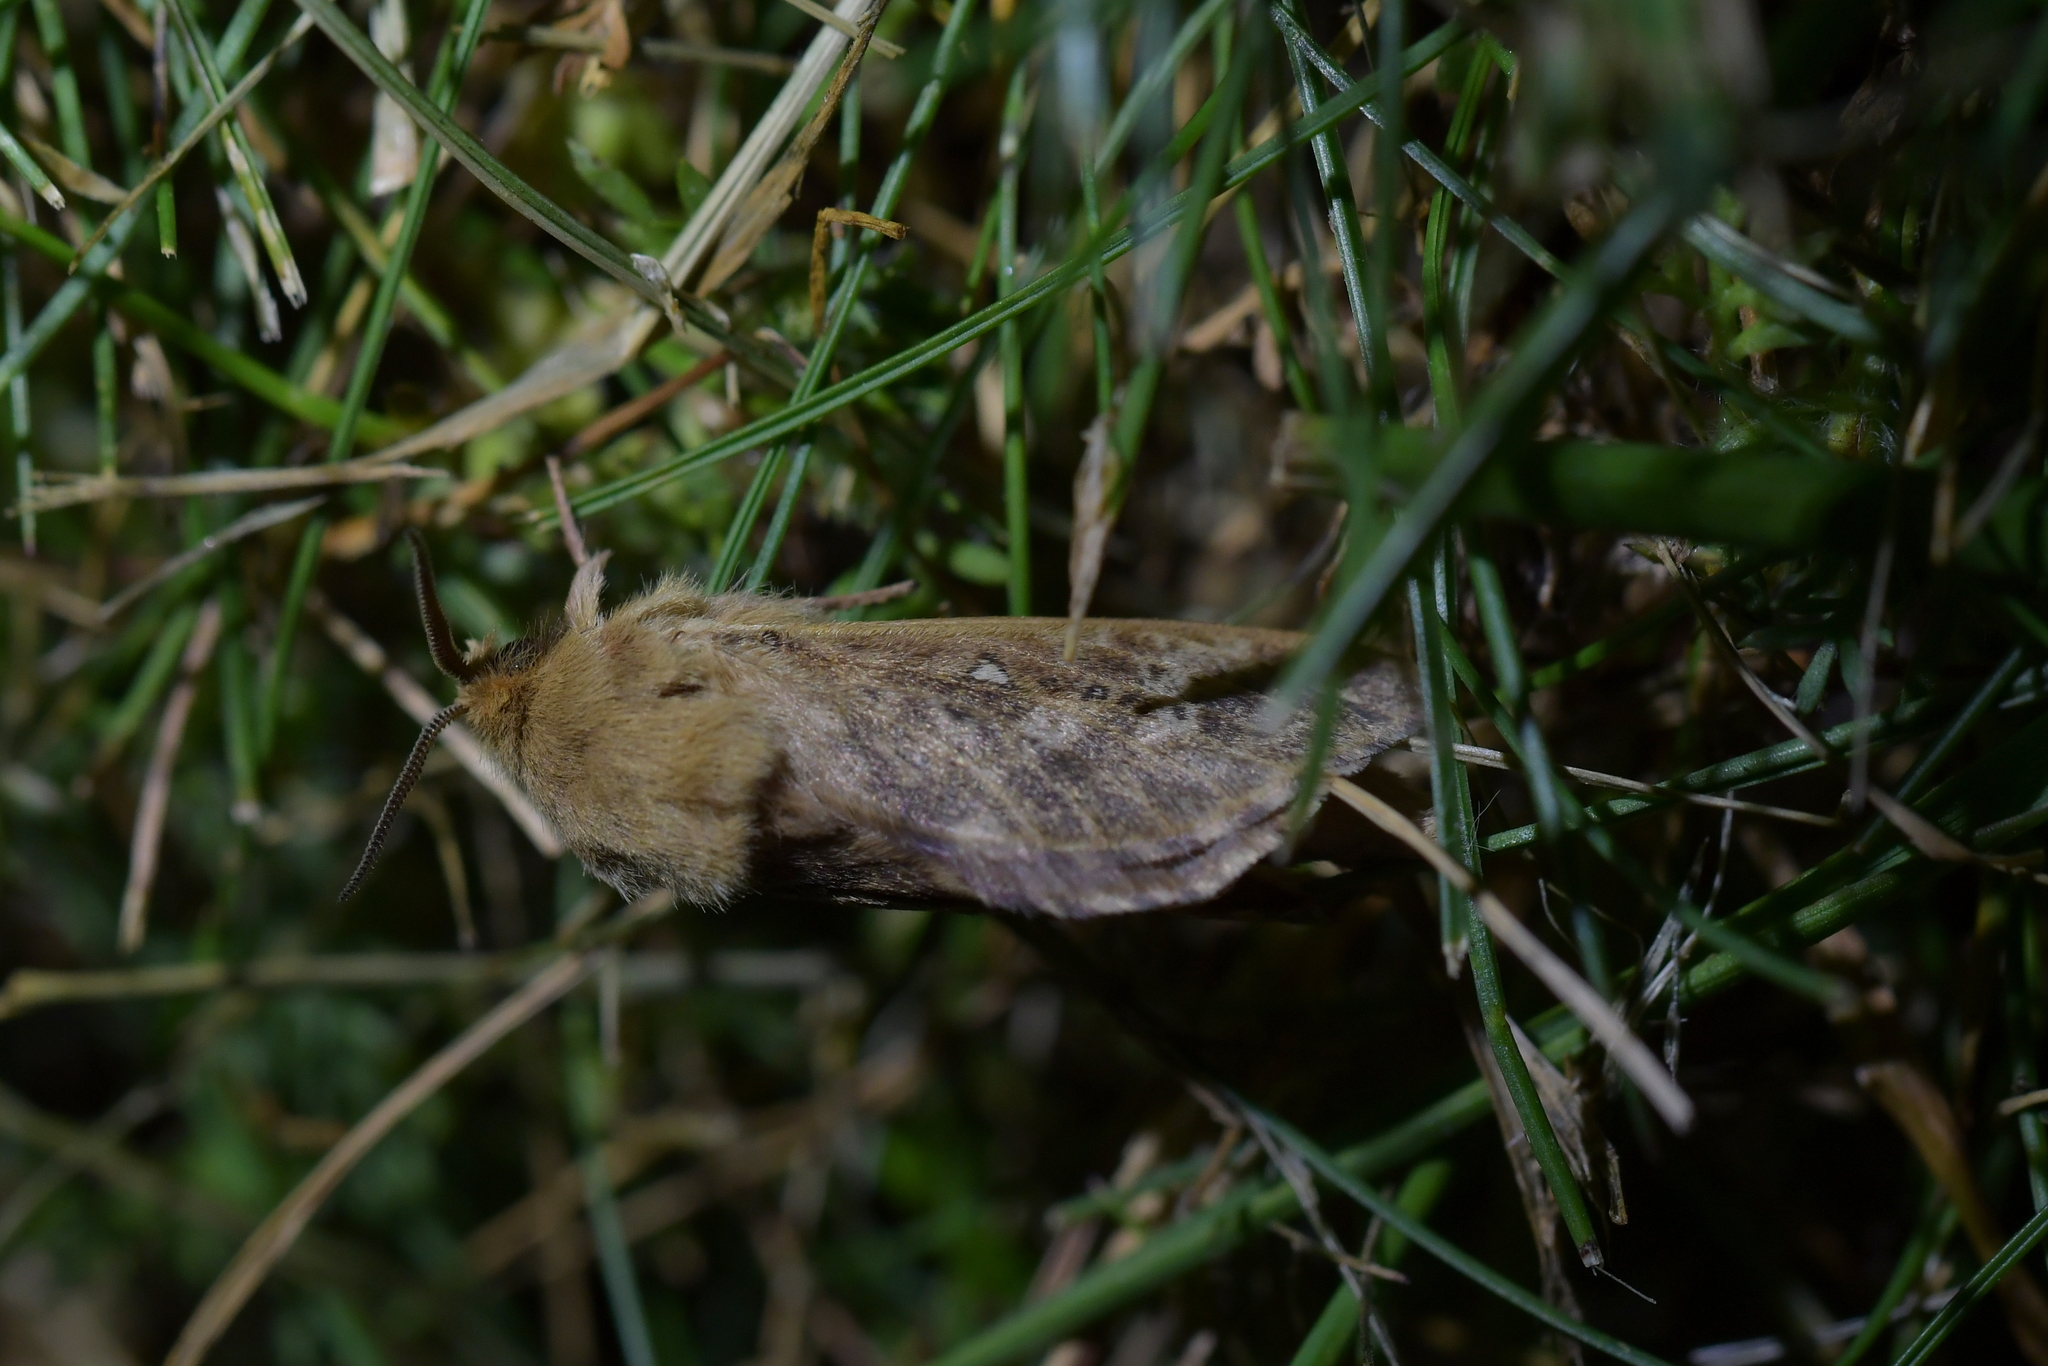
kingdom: Animalia
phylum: Arthropoda
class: Insecta
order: Lepidoptera
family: Hepialidae
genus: Wiseana
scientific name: Wiseana copularis
